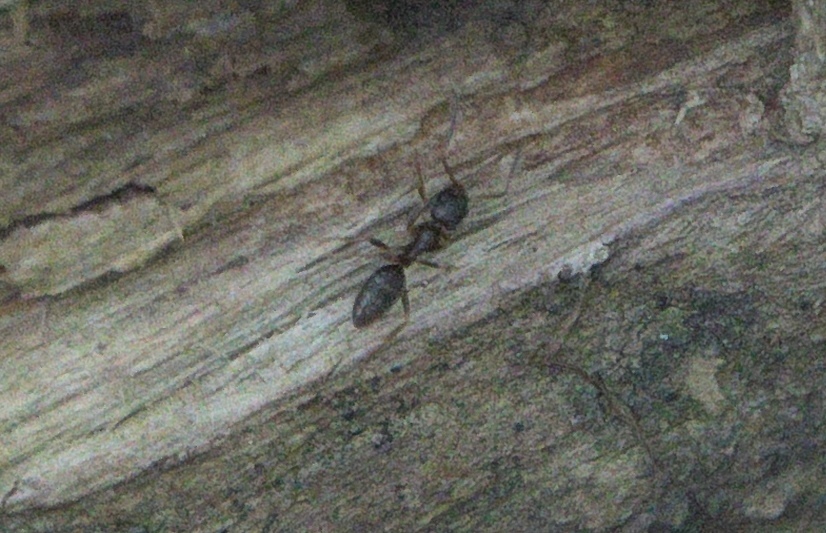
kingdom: Animalia
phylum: Arthropoda
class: Insecta
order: Hymenoptera
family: Formicidae
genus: Tapinoma
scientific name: Tapinoma sessile
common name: Odorous house ant
